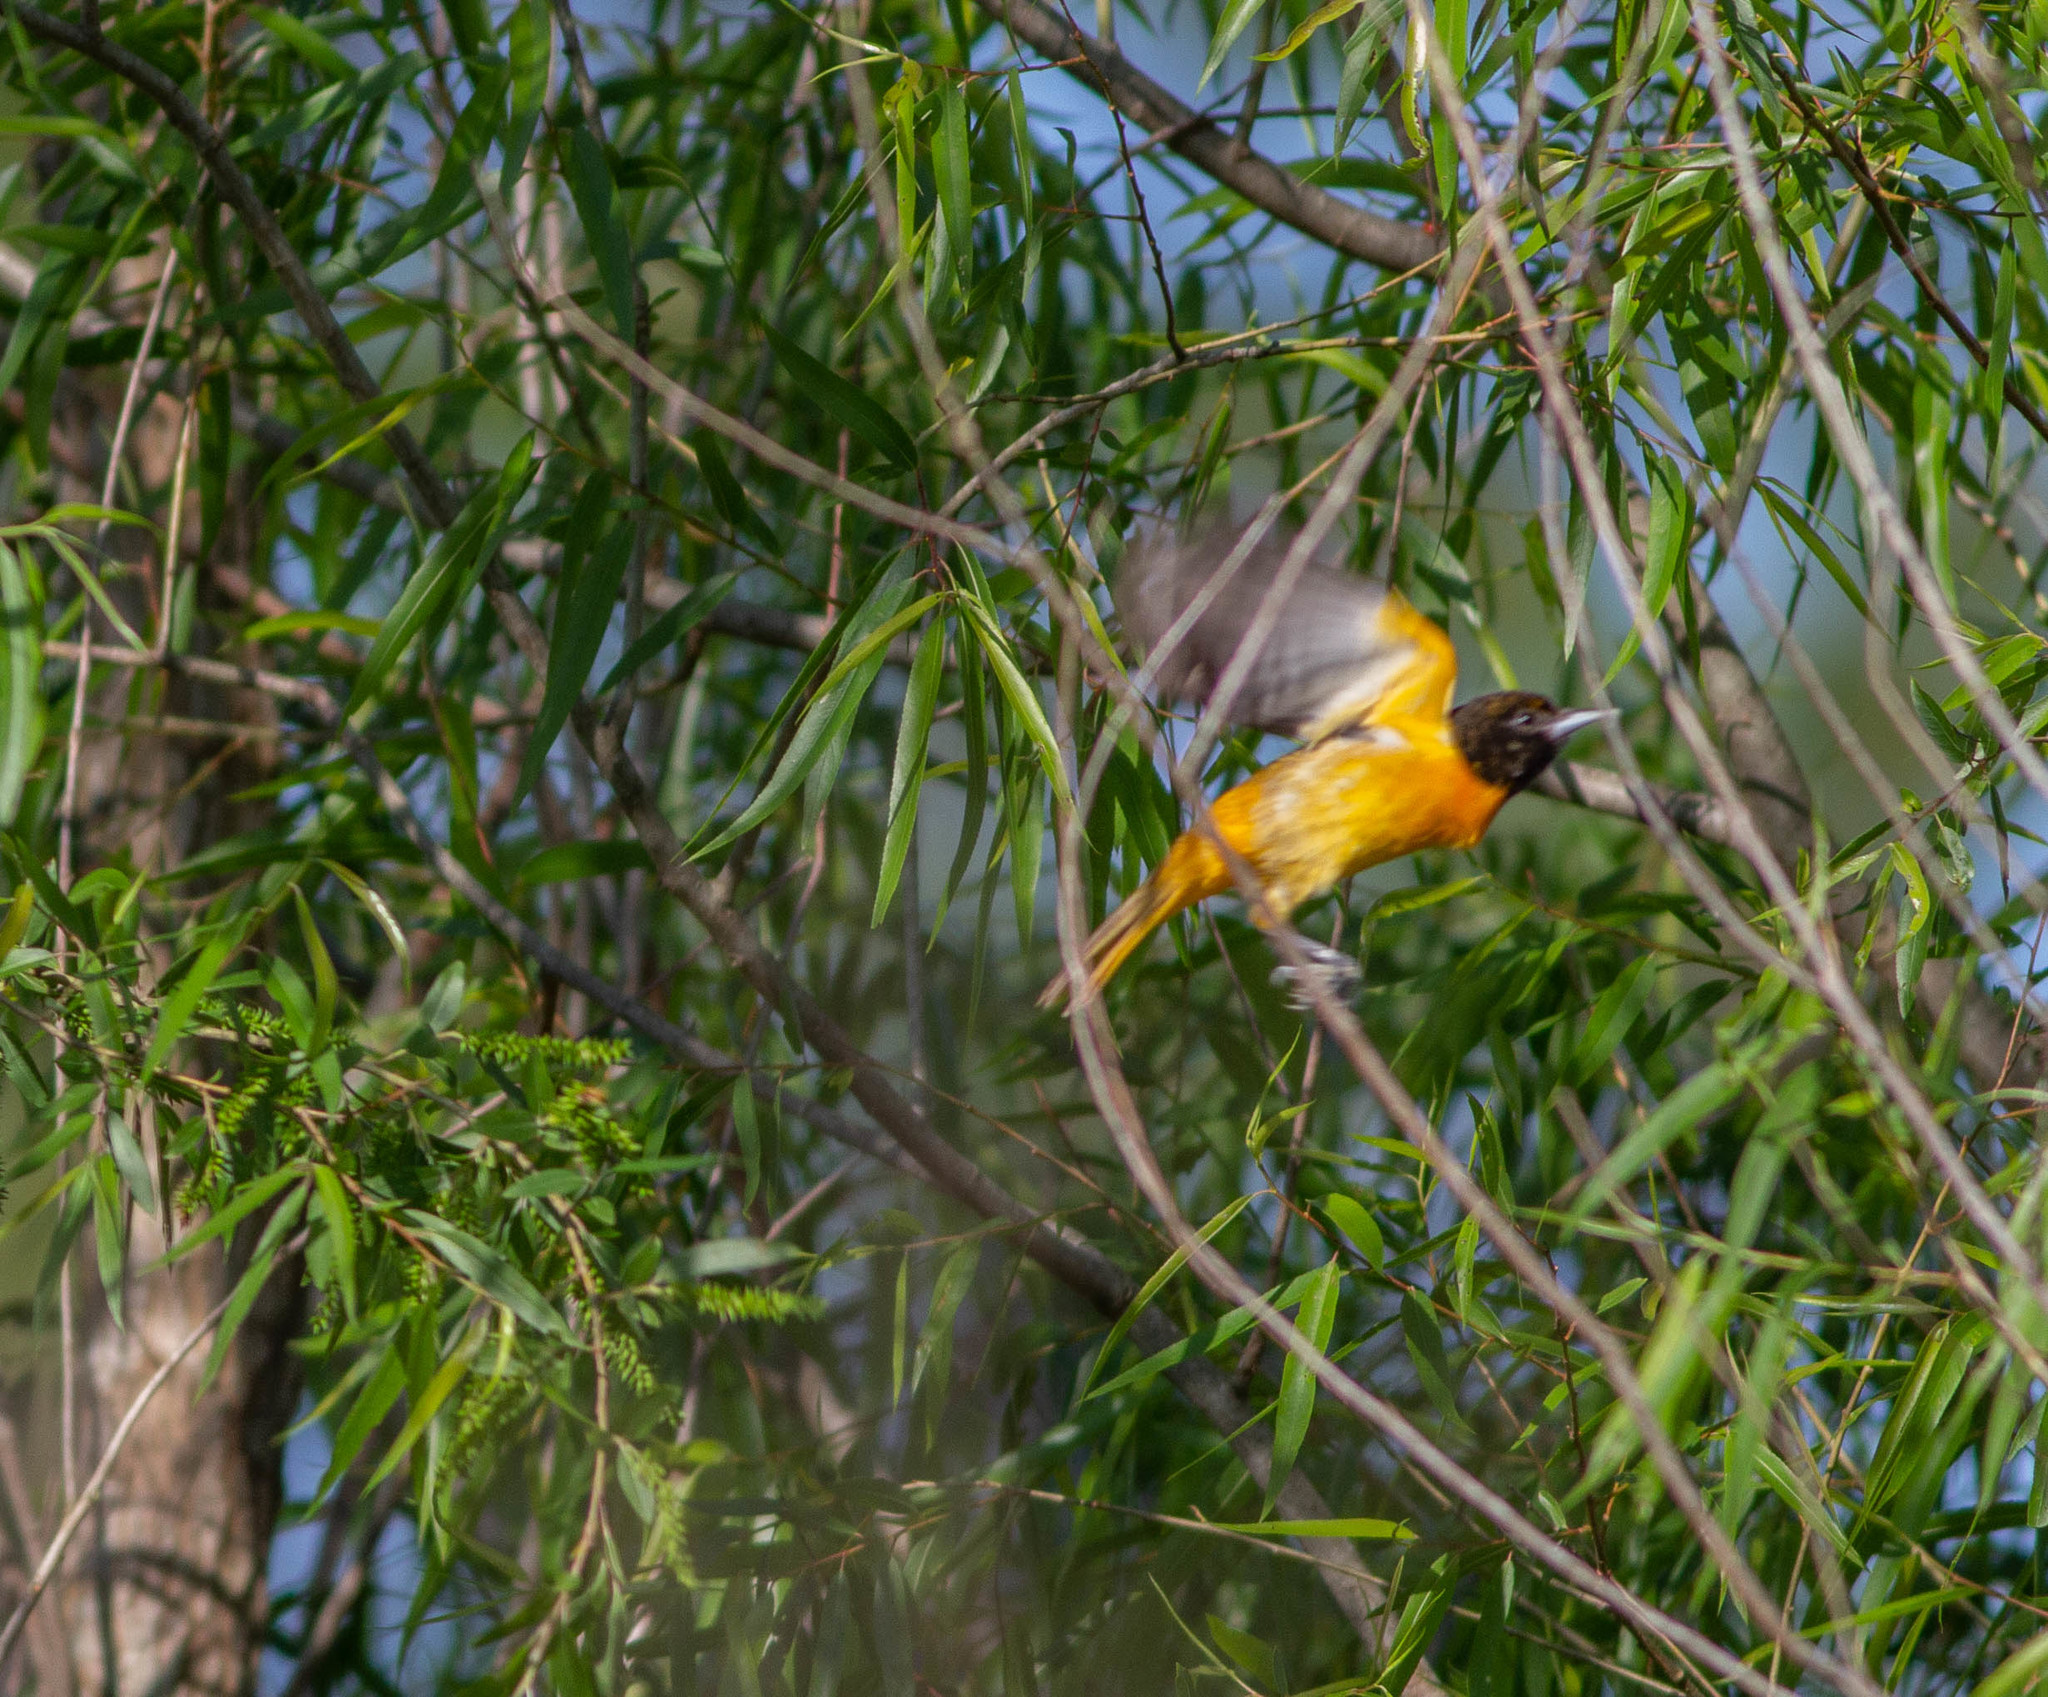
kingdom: Animalia
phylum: Chordata
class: Aves
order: Passeriformes
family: Icteridae
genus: Icterus
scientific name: Icterus galbula
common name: Baltimore oriole
